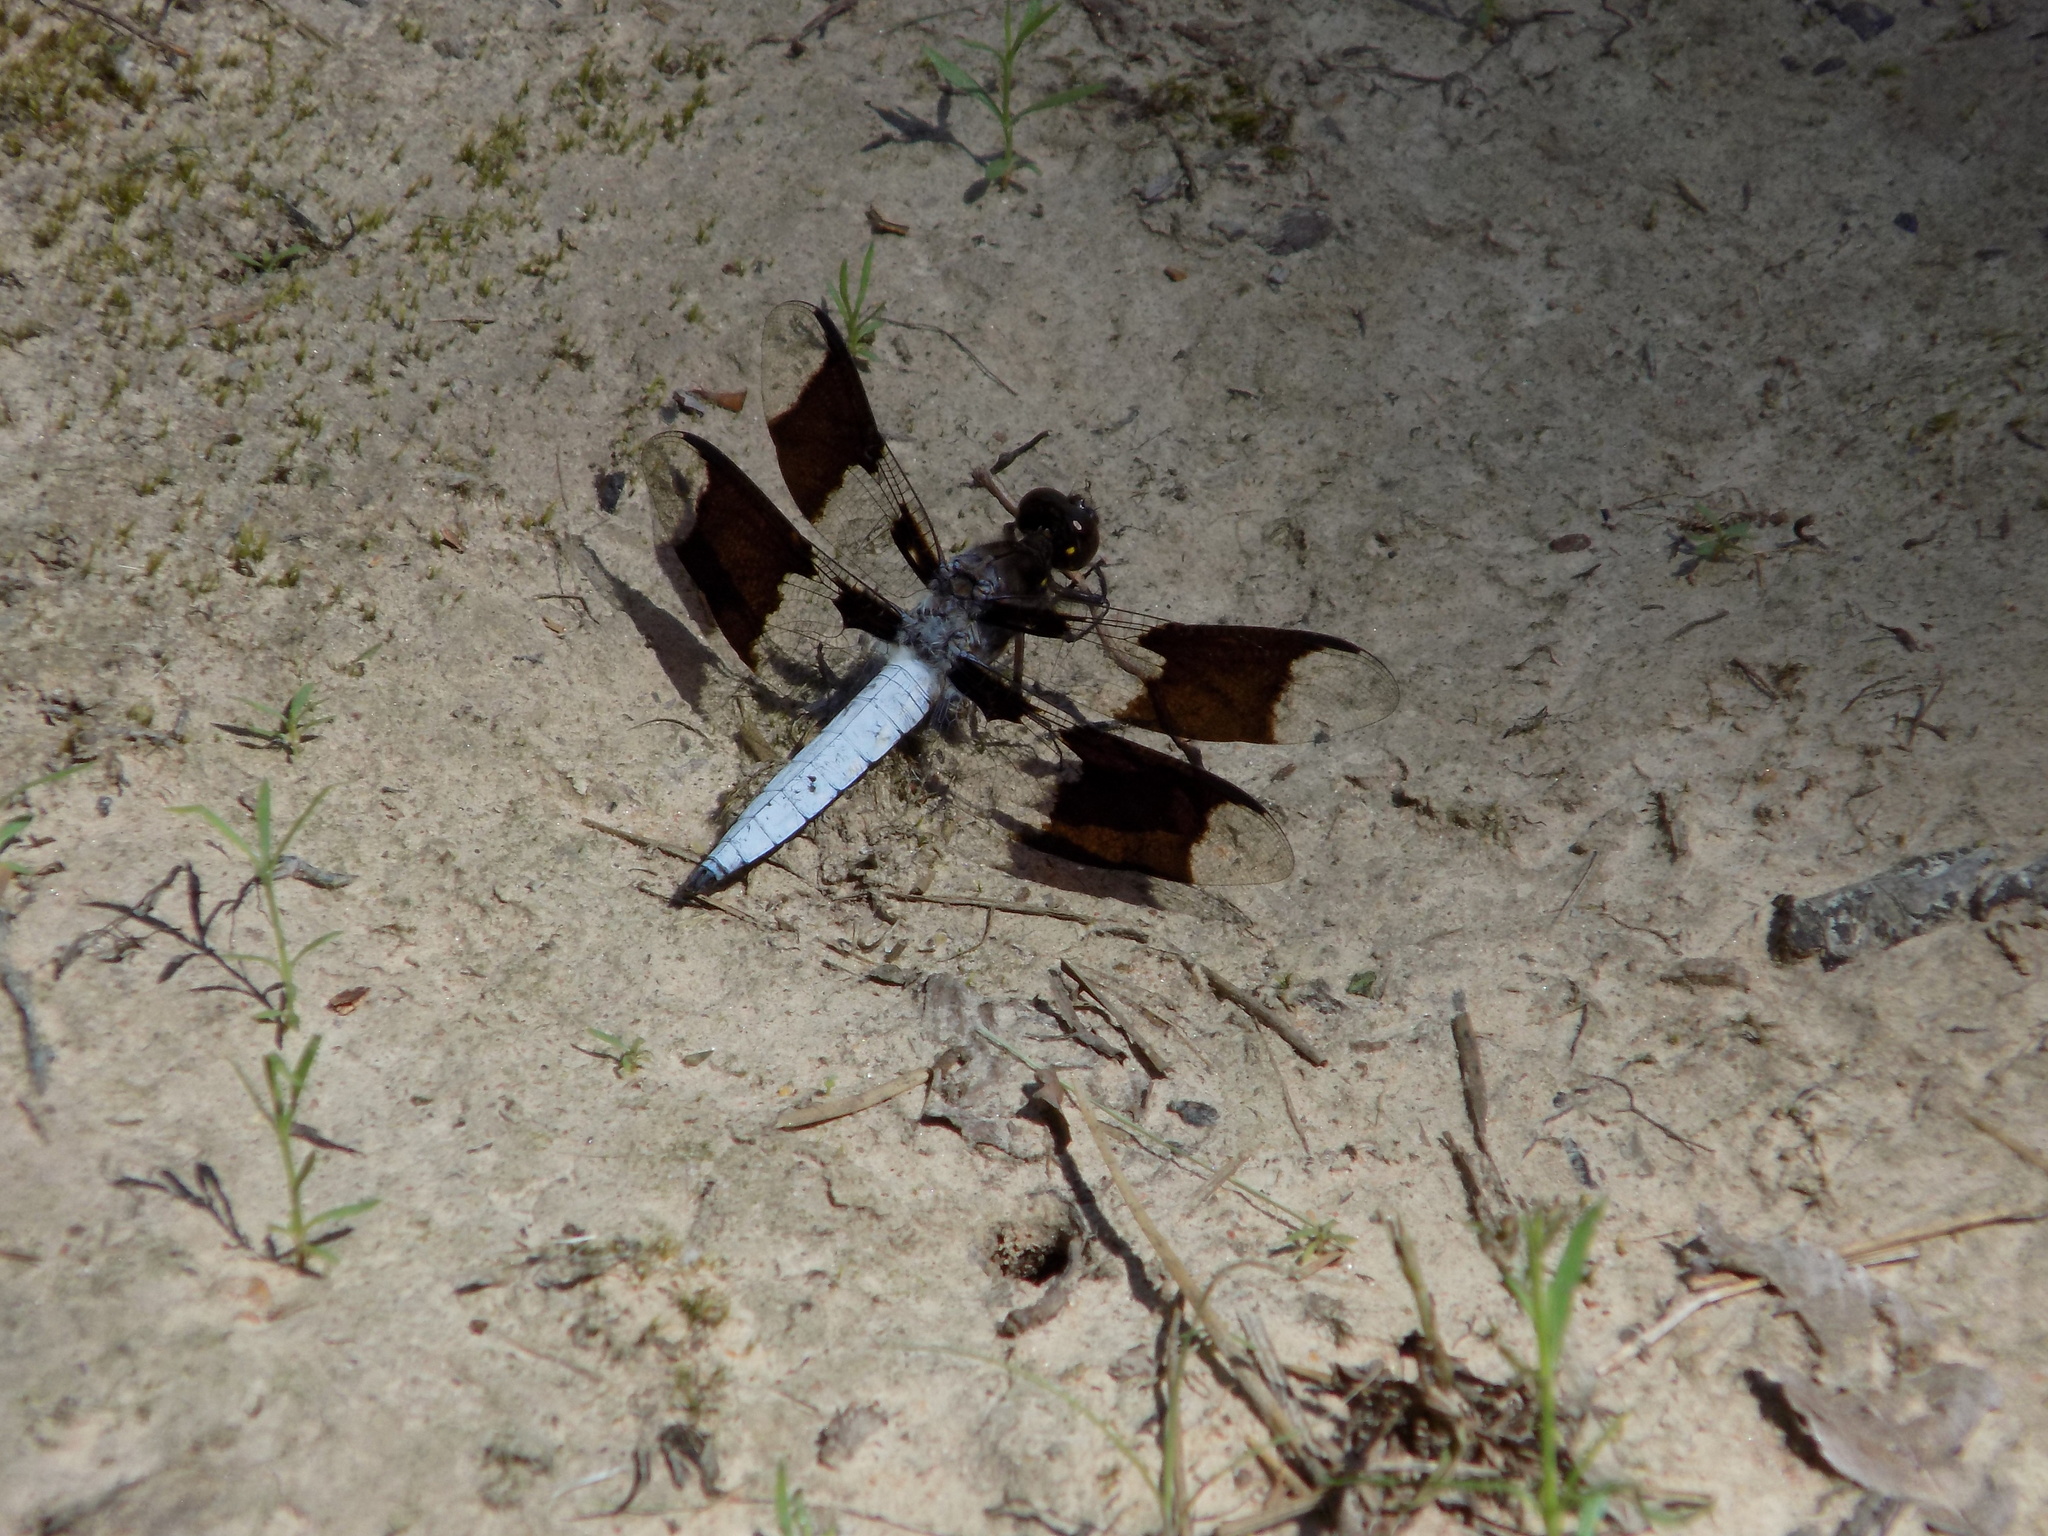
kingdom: Animalia
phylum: Arthropoda
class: Insecta
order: Odonata
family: Libellulidae
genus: Plathemis
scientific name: Plathemis lydia
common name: Common whitetail
